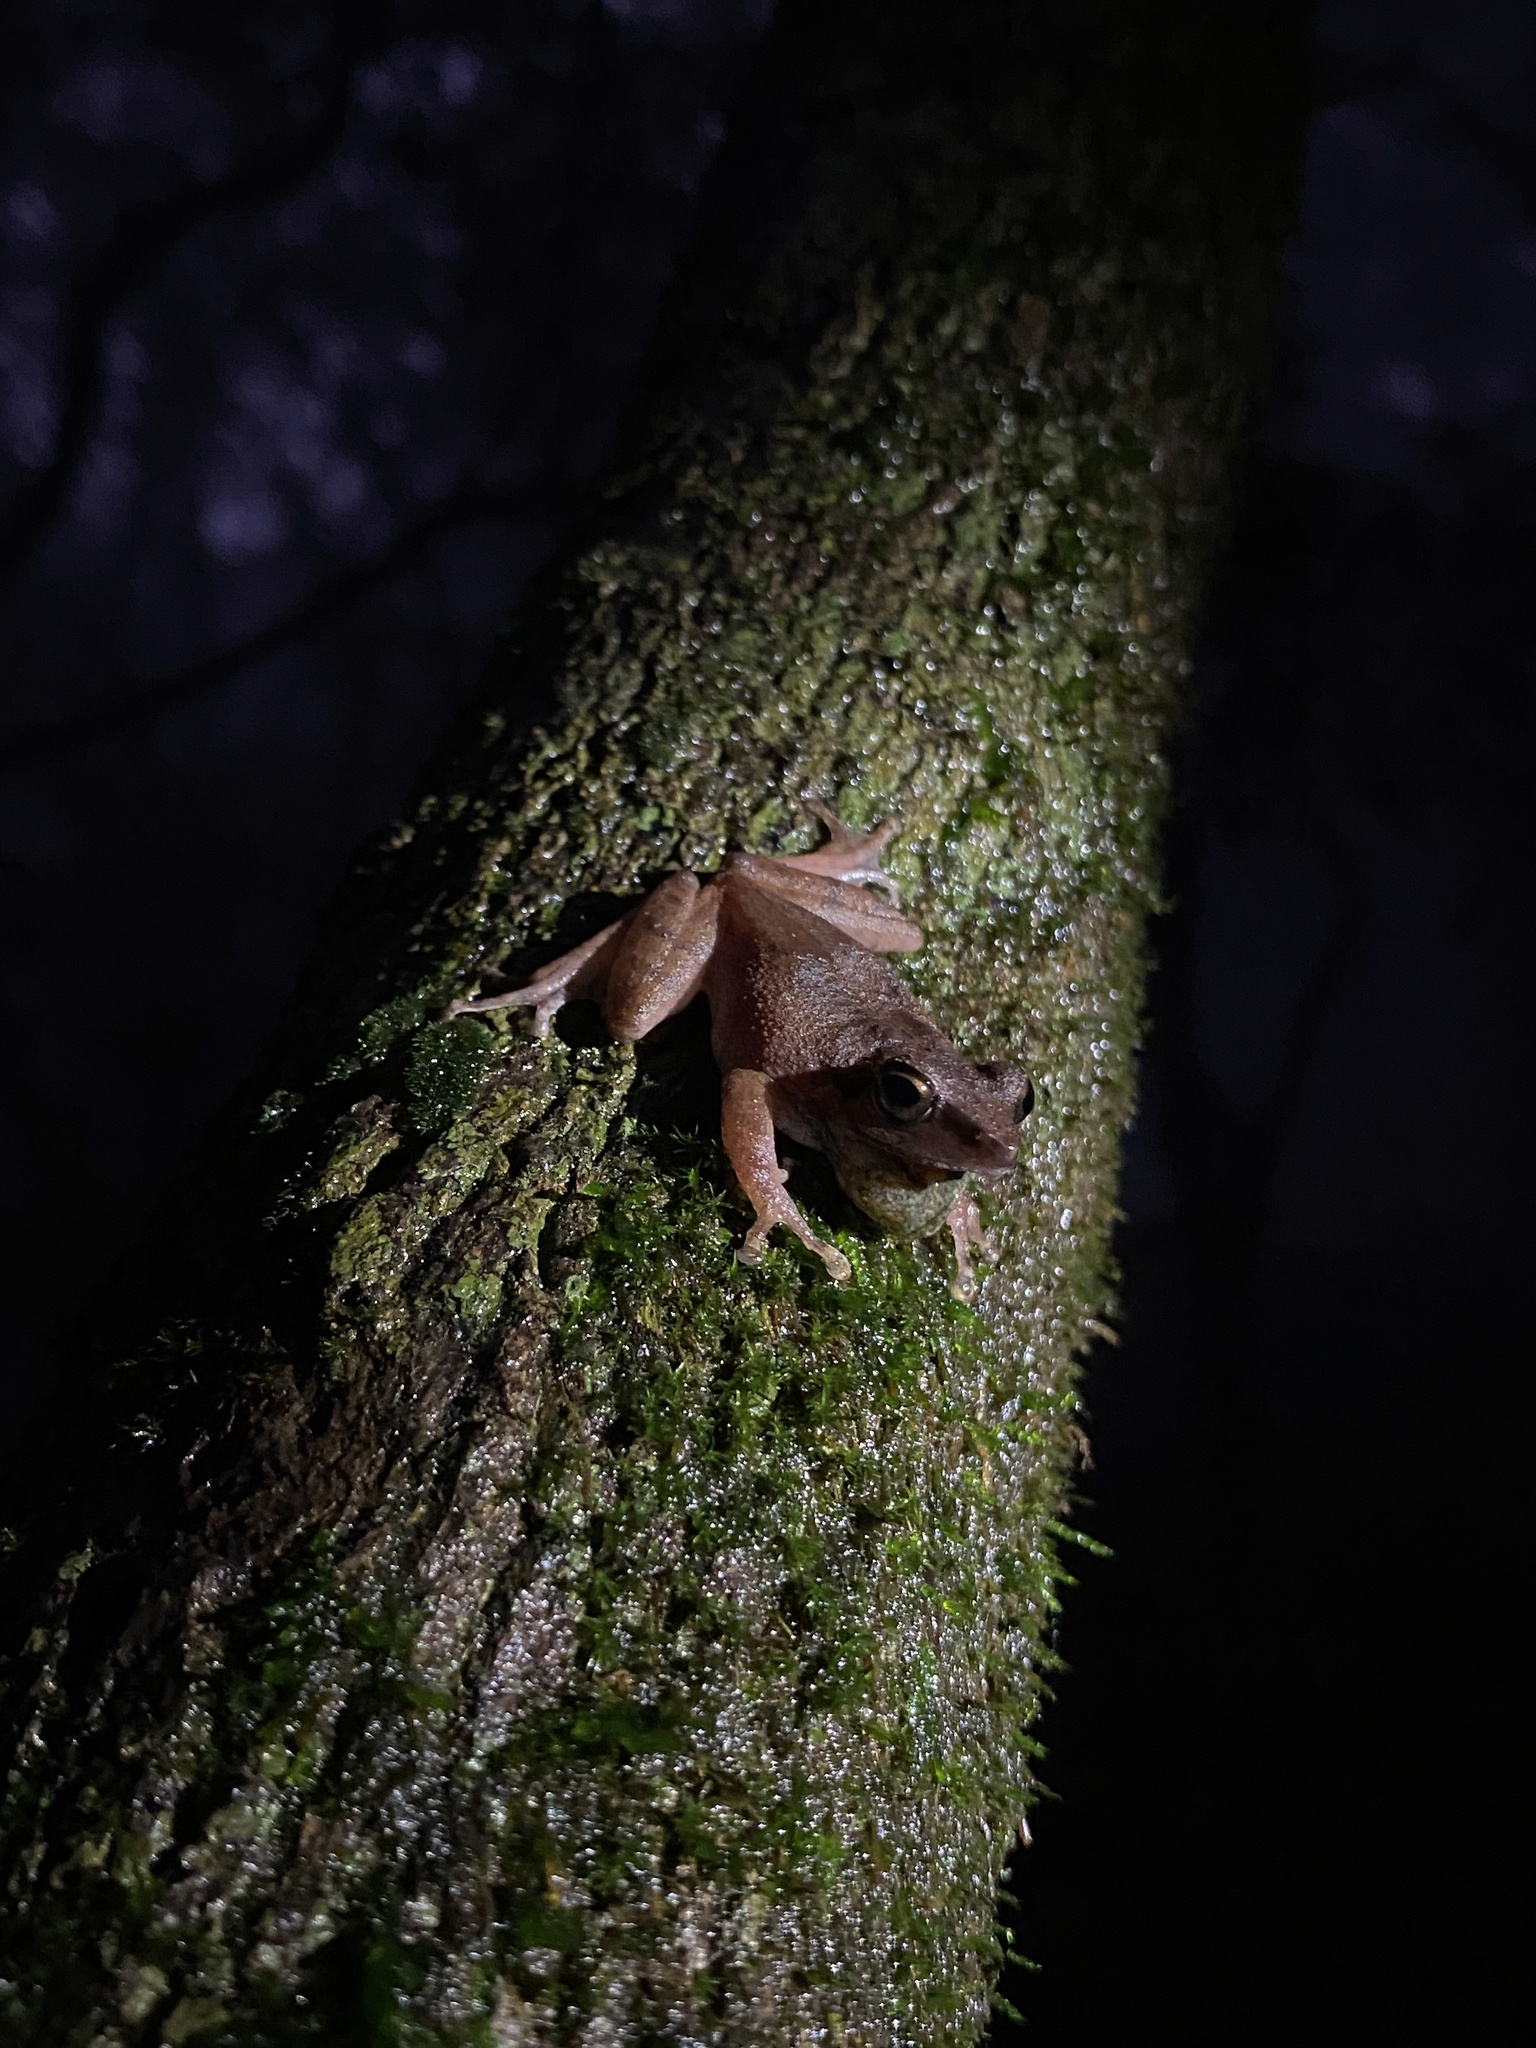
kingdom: Animalia
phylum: Chordata
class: Amphibia
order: Anura
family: Rhacophoridae
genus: Pseudophilautus
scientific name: Pseudophilautus amboli
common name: Amboli bush frog
